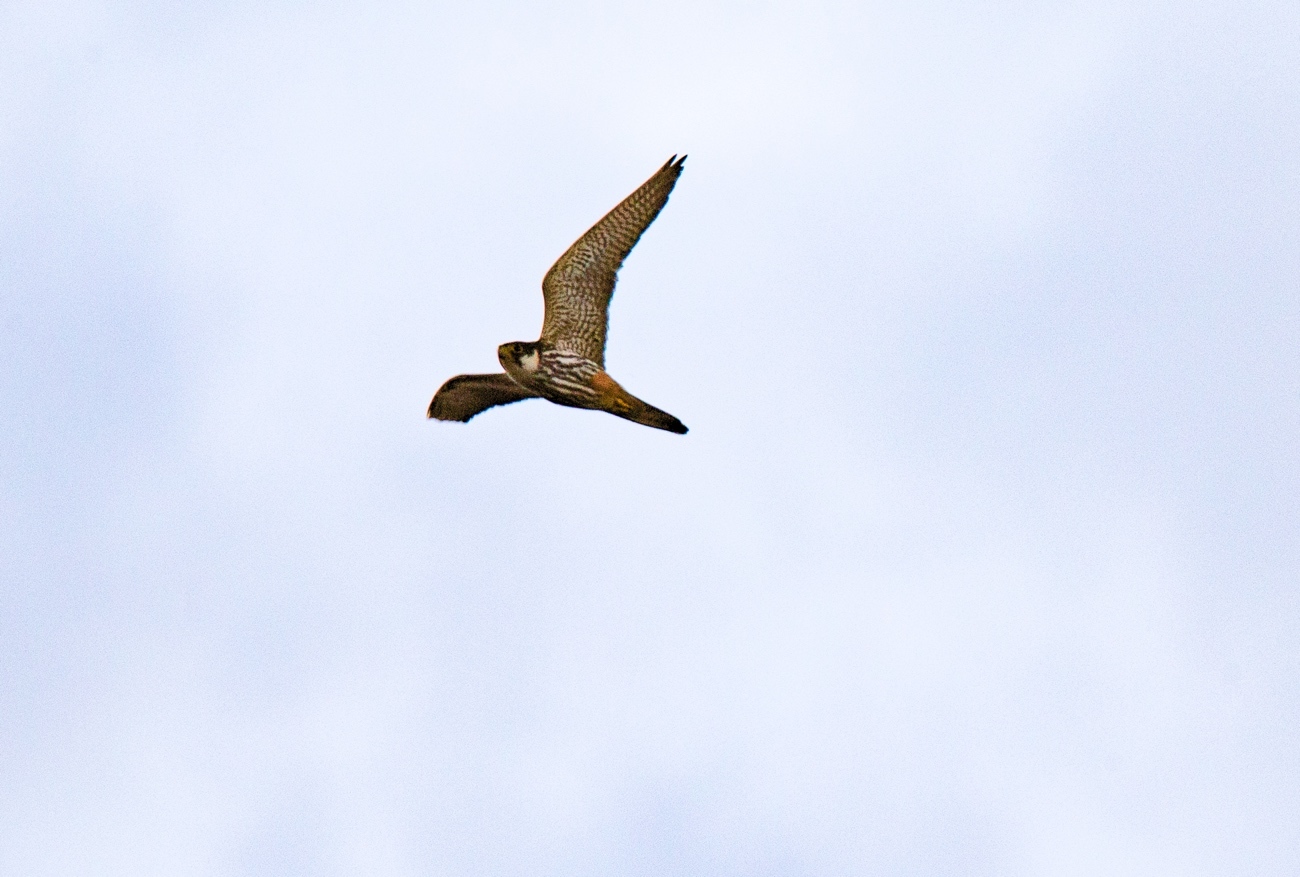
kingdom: Animalia
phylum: Chordata
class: Aves
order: Falconiformes
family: Falconidae
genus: Falco
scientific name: Falco subbuteo
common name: Eurasian hobby
